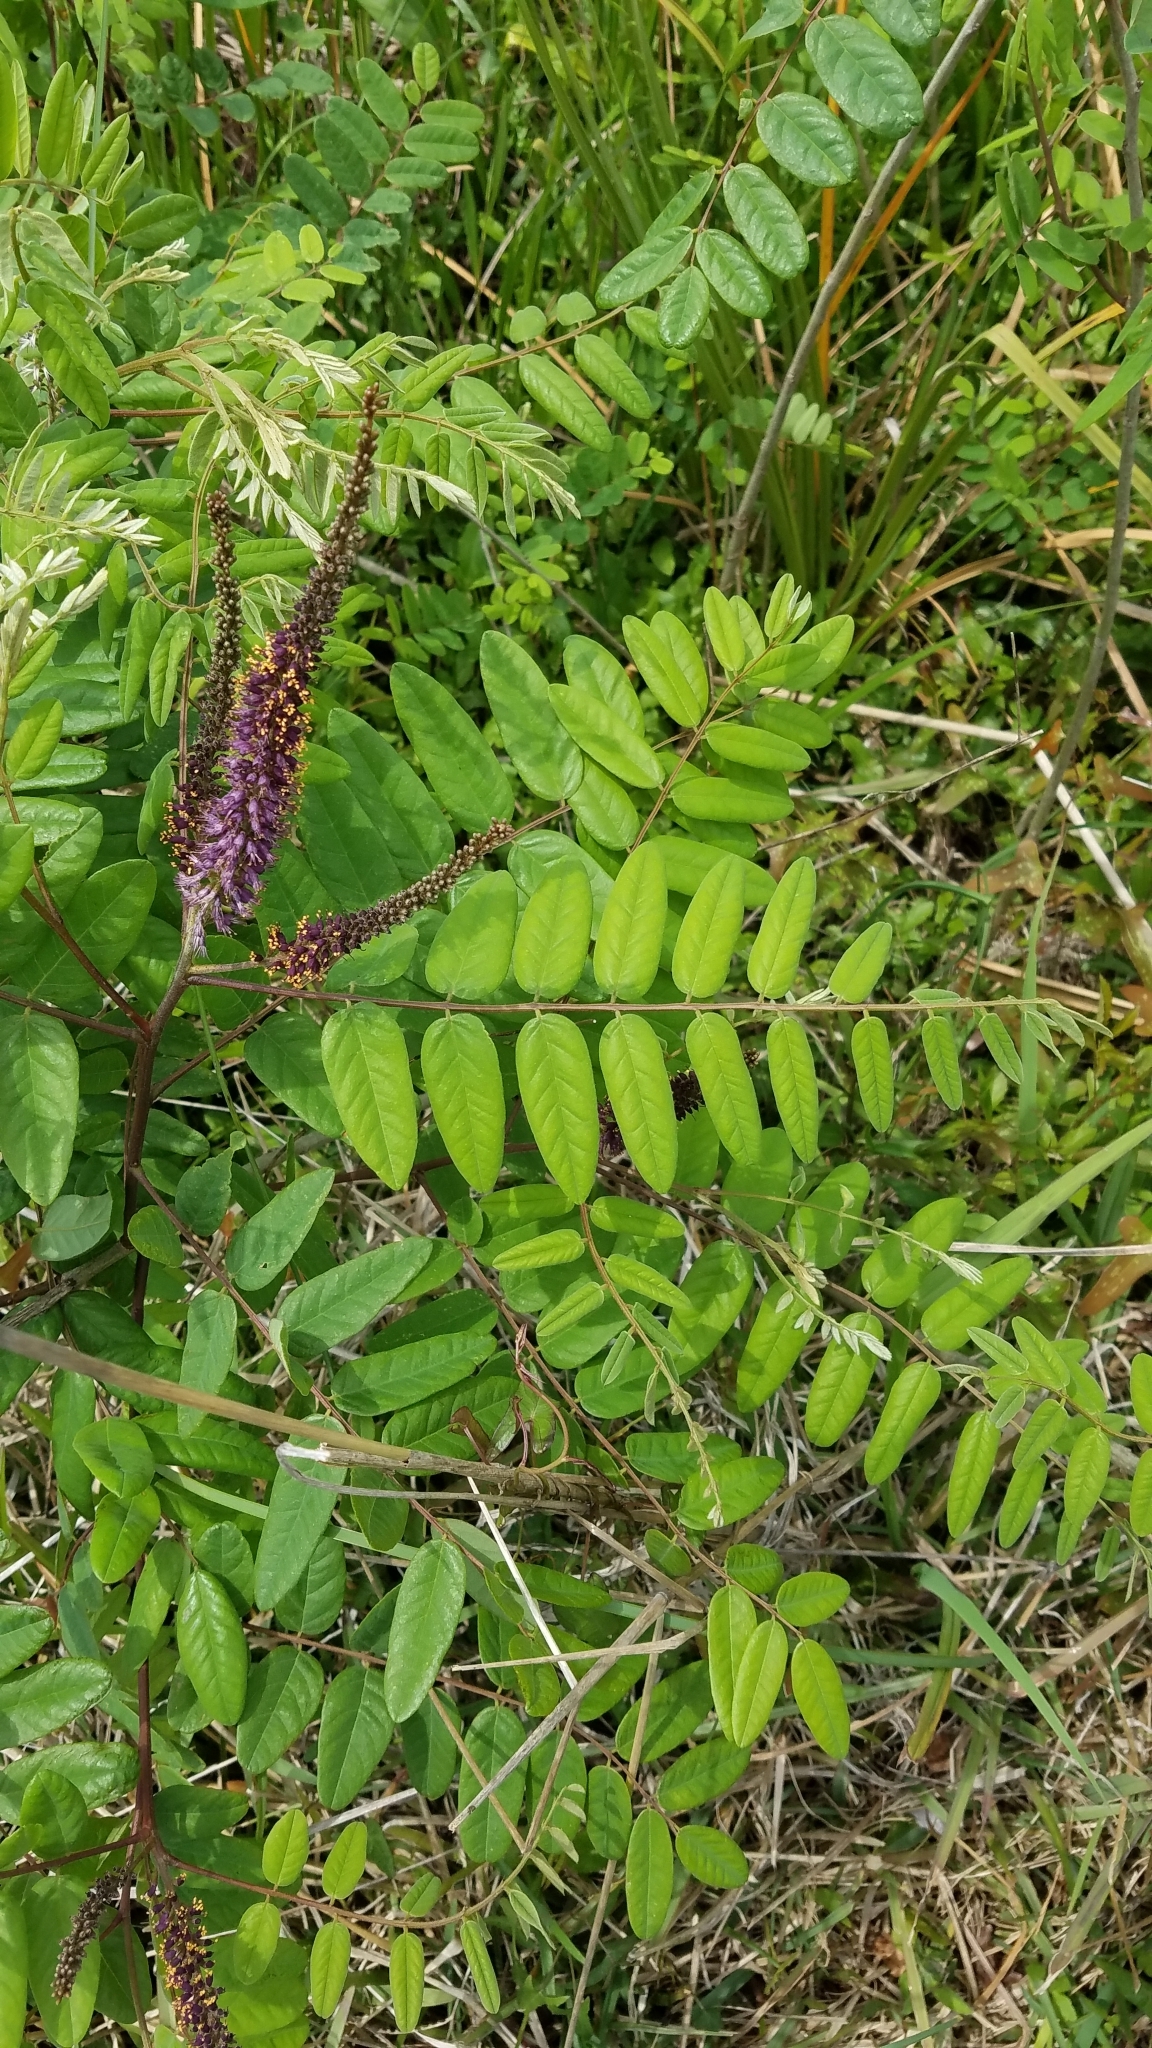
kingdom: Plantae
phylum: Tracheophyta
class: Magnoliopsida
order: Fabales
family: Fabaceae
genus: Amorpha
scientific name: Amorpha fruticosa
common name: False indigo
